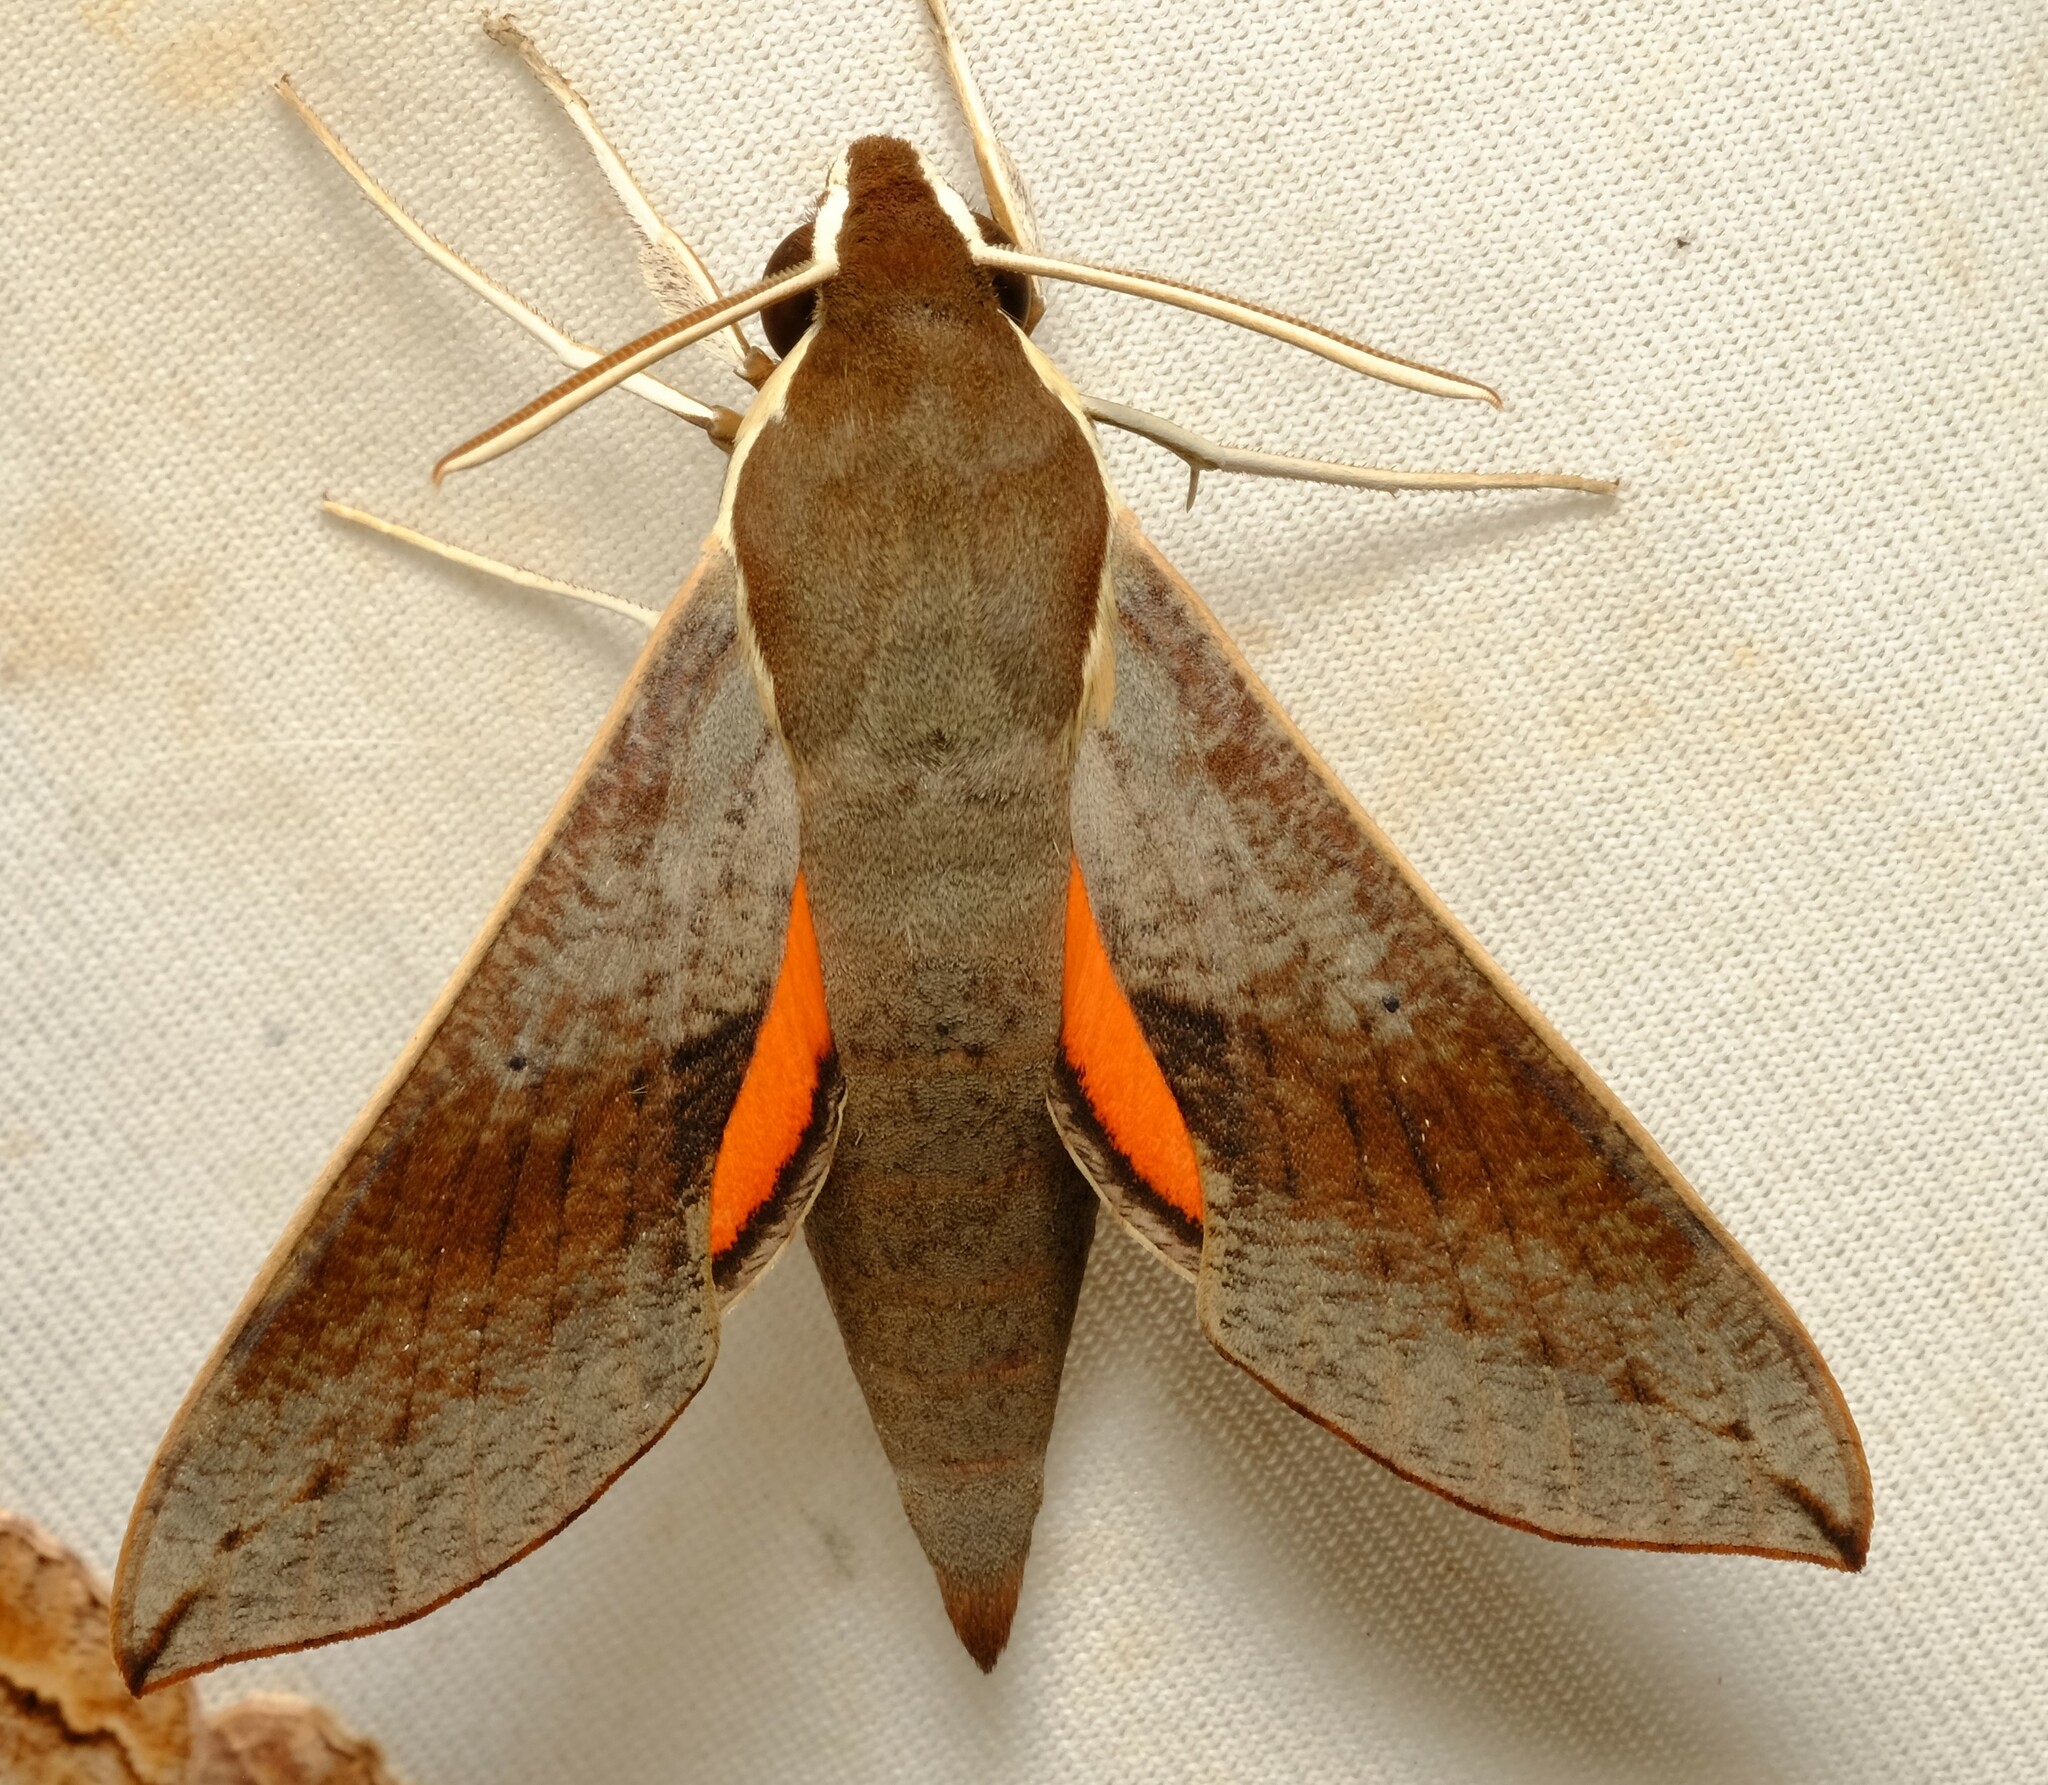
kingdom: Animalia
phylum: Arthropoda
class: Insecta
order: Lepidoptera
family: Sphingidae
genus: Hippotion
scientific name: Hippotion scrofa
